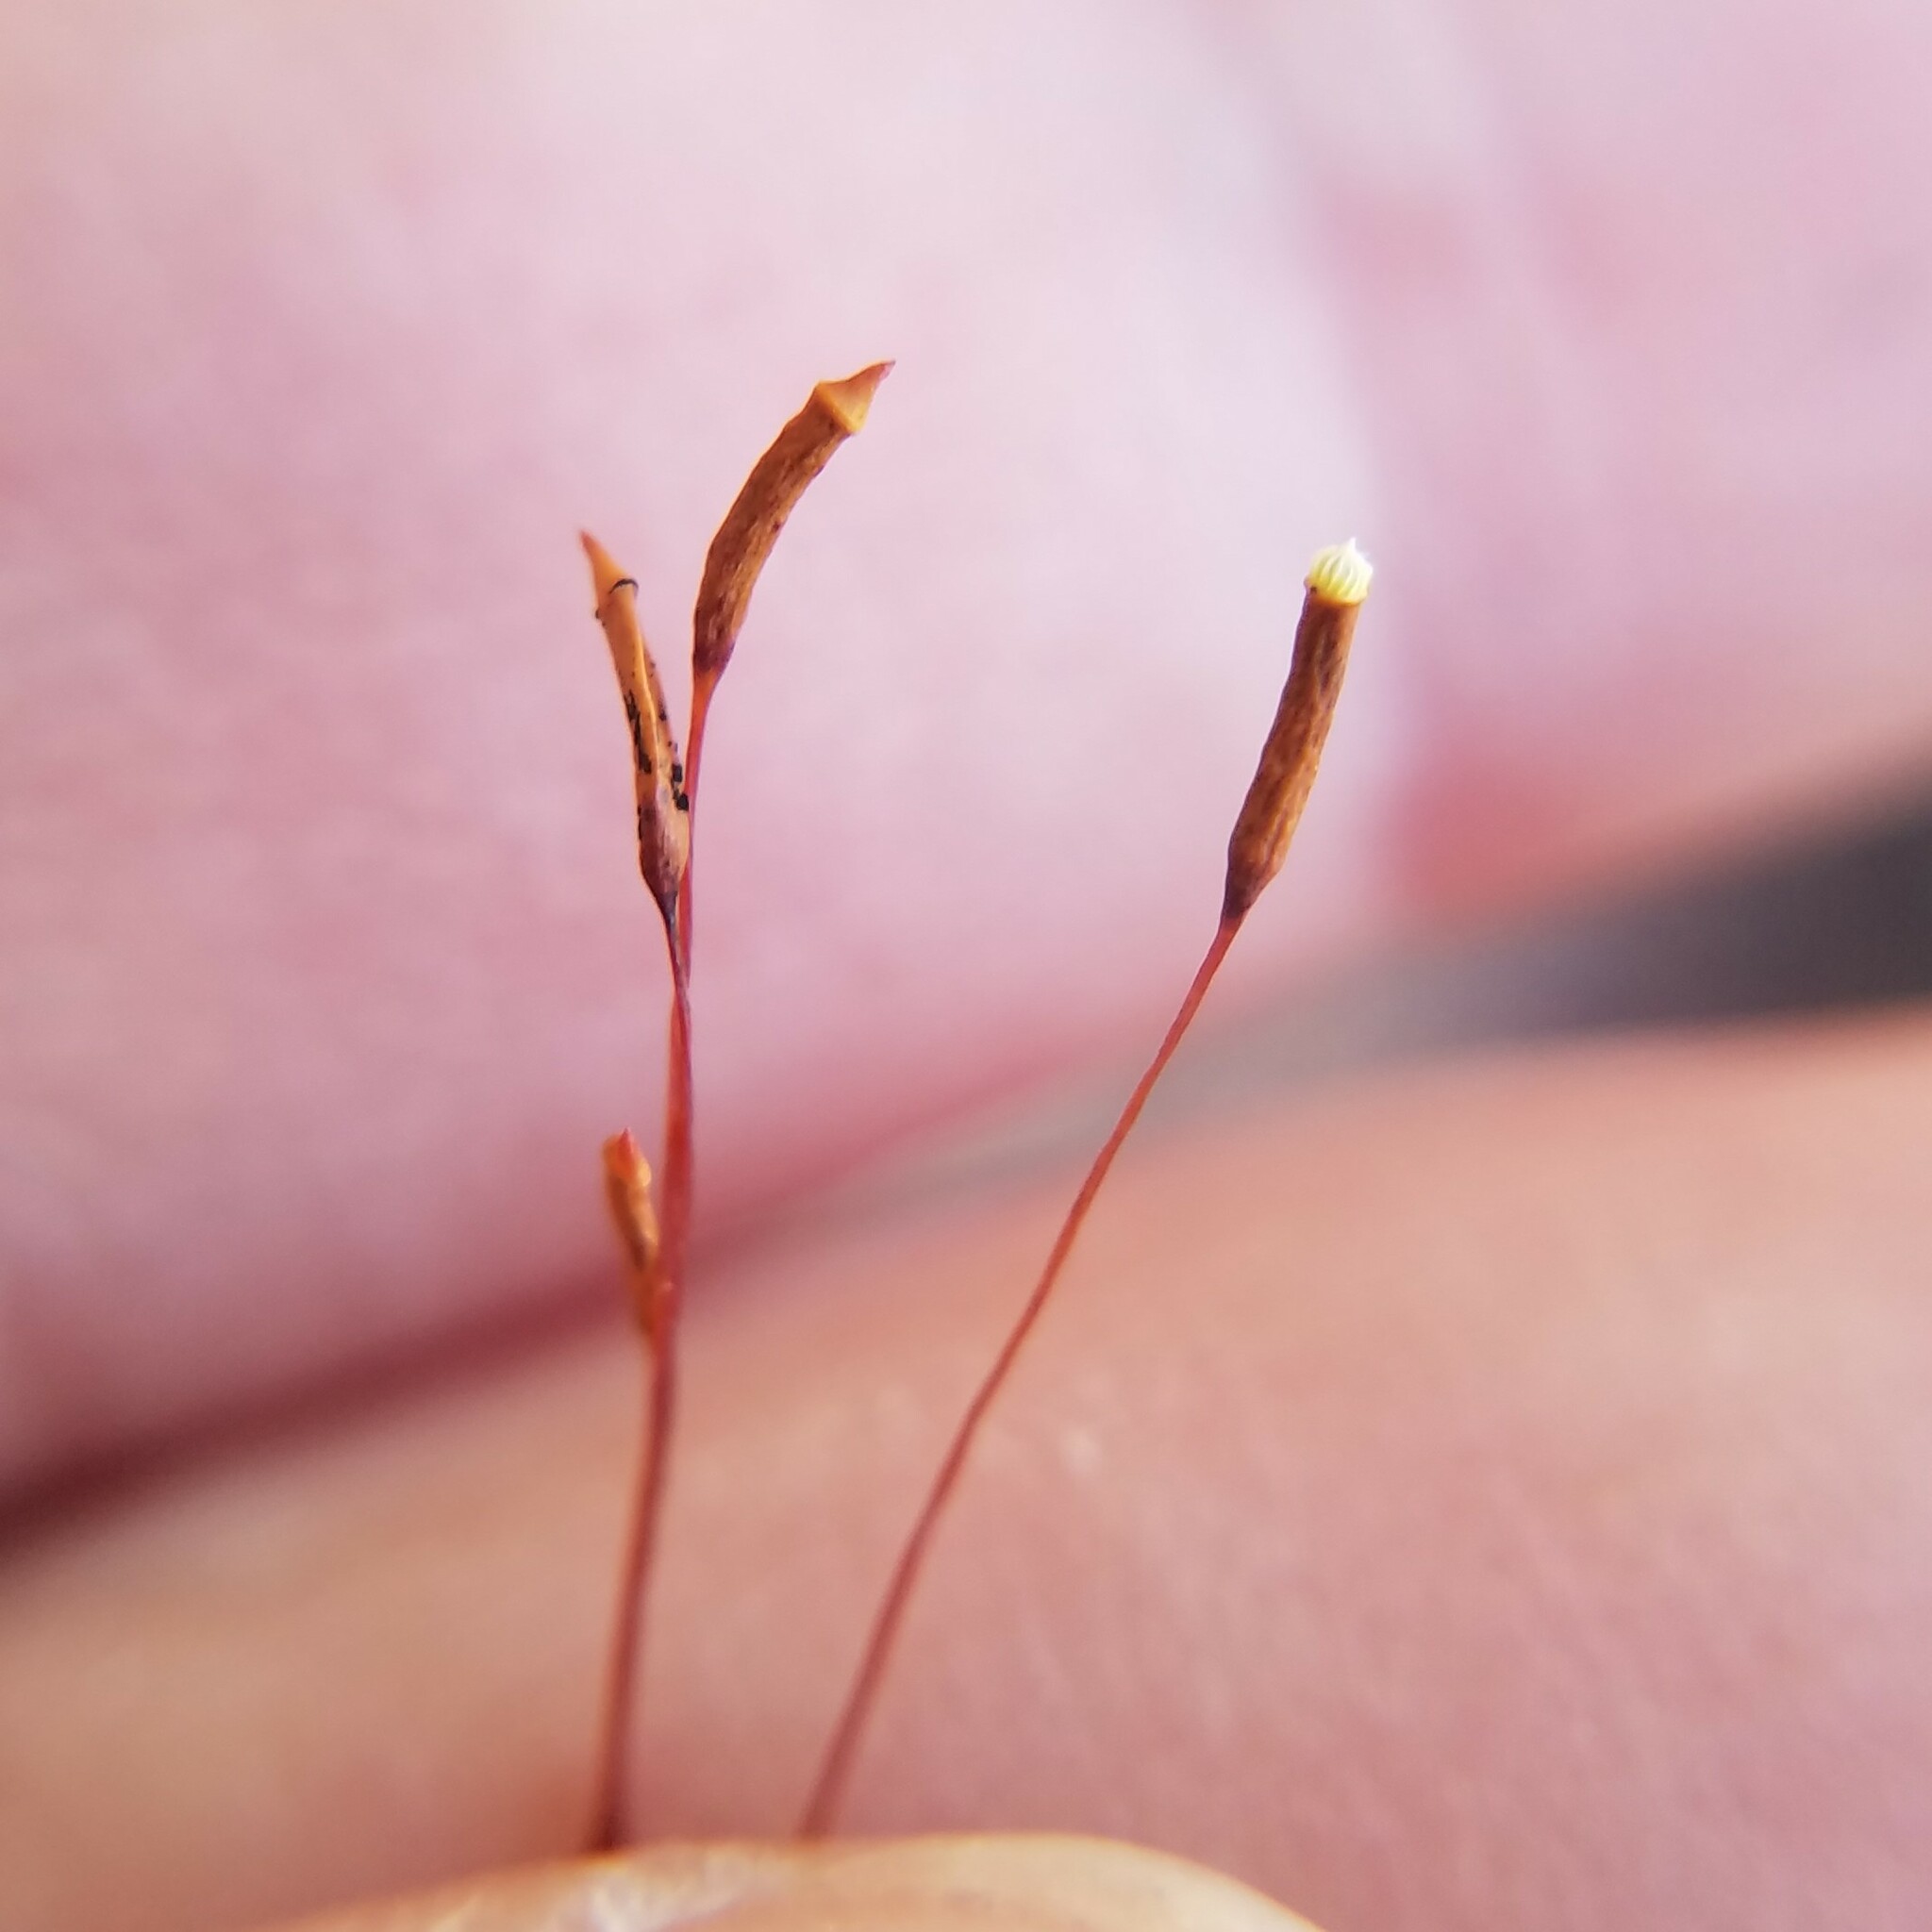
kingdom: Plantae
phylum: Bryophyta
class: Bryopsida
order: Hypnales
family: Callicladiaceae
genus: Callicladium
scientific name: Callicladium imponens
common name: Brocade moss
